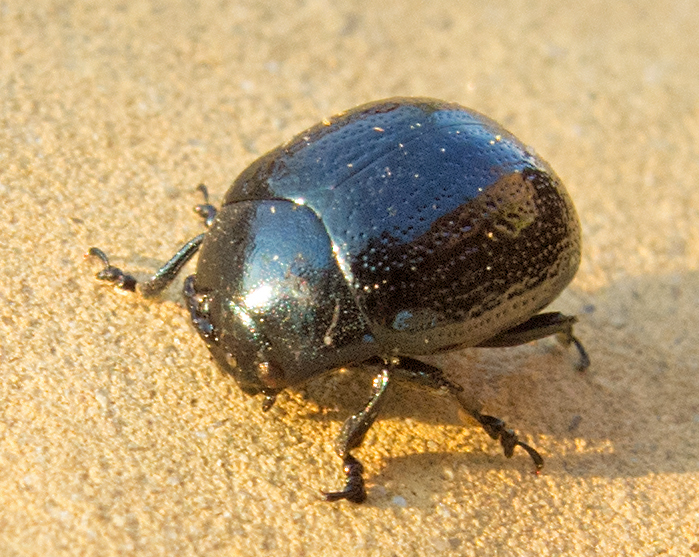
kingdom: Animalia
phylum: Arthropoda
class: Insecta
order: Coleoptera
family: Chrysomelidae
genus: Chrysolina
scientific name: Chrysolina haemoptera
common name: Plantain leaf beetle
